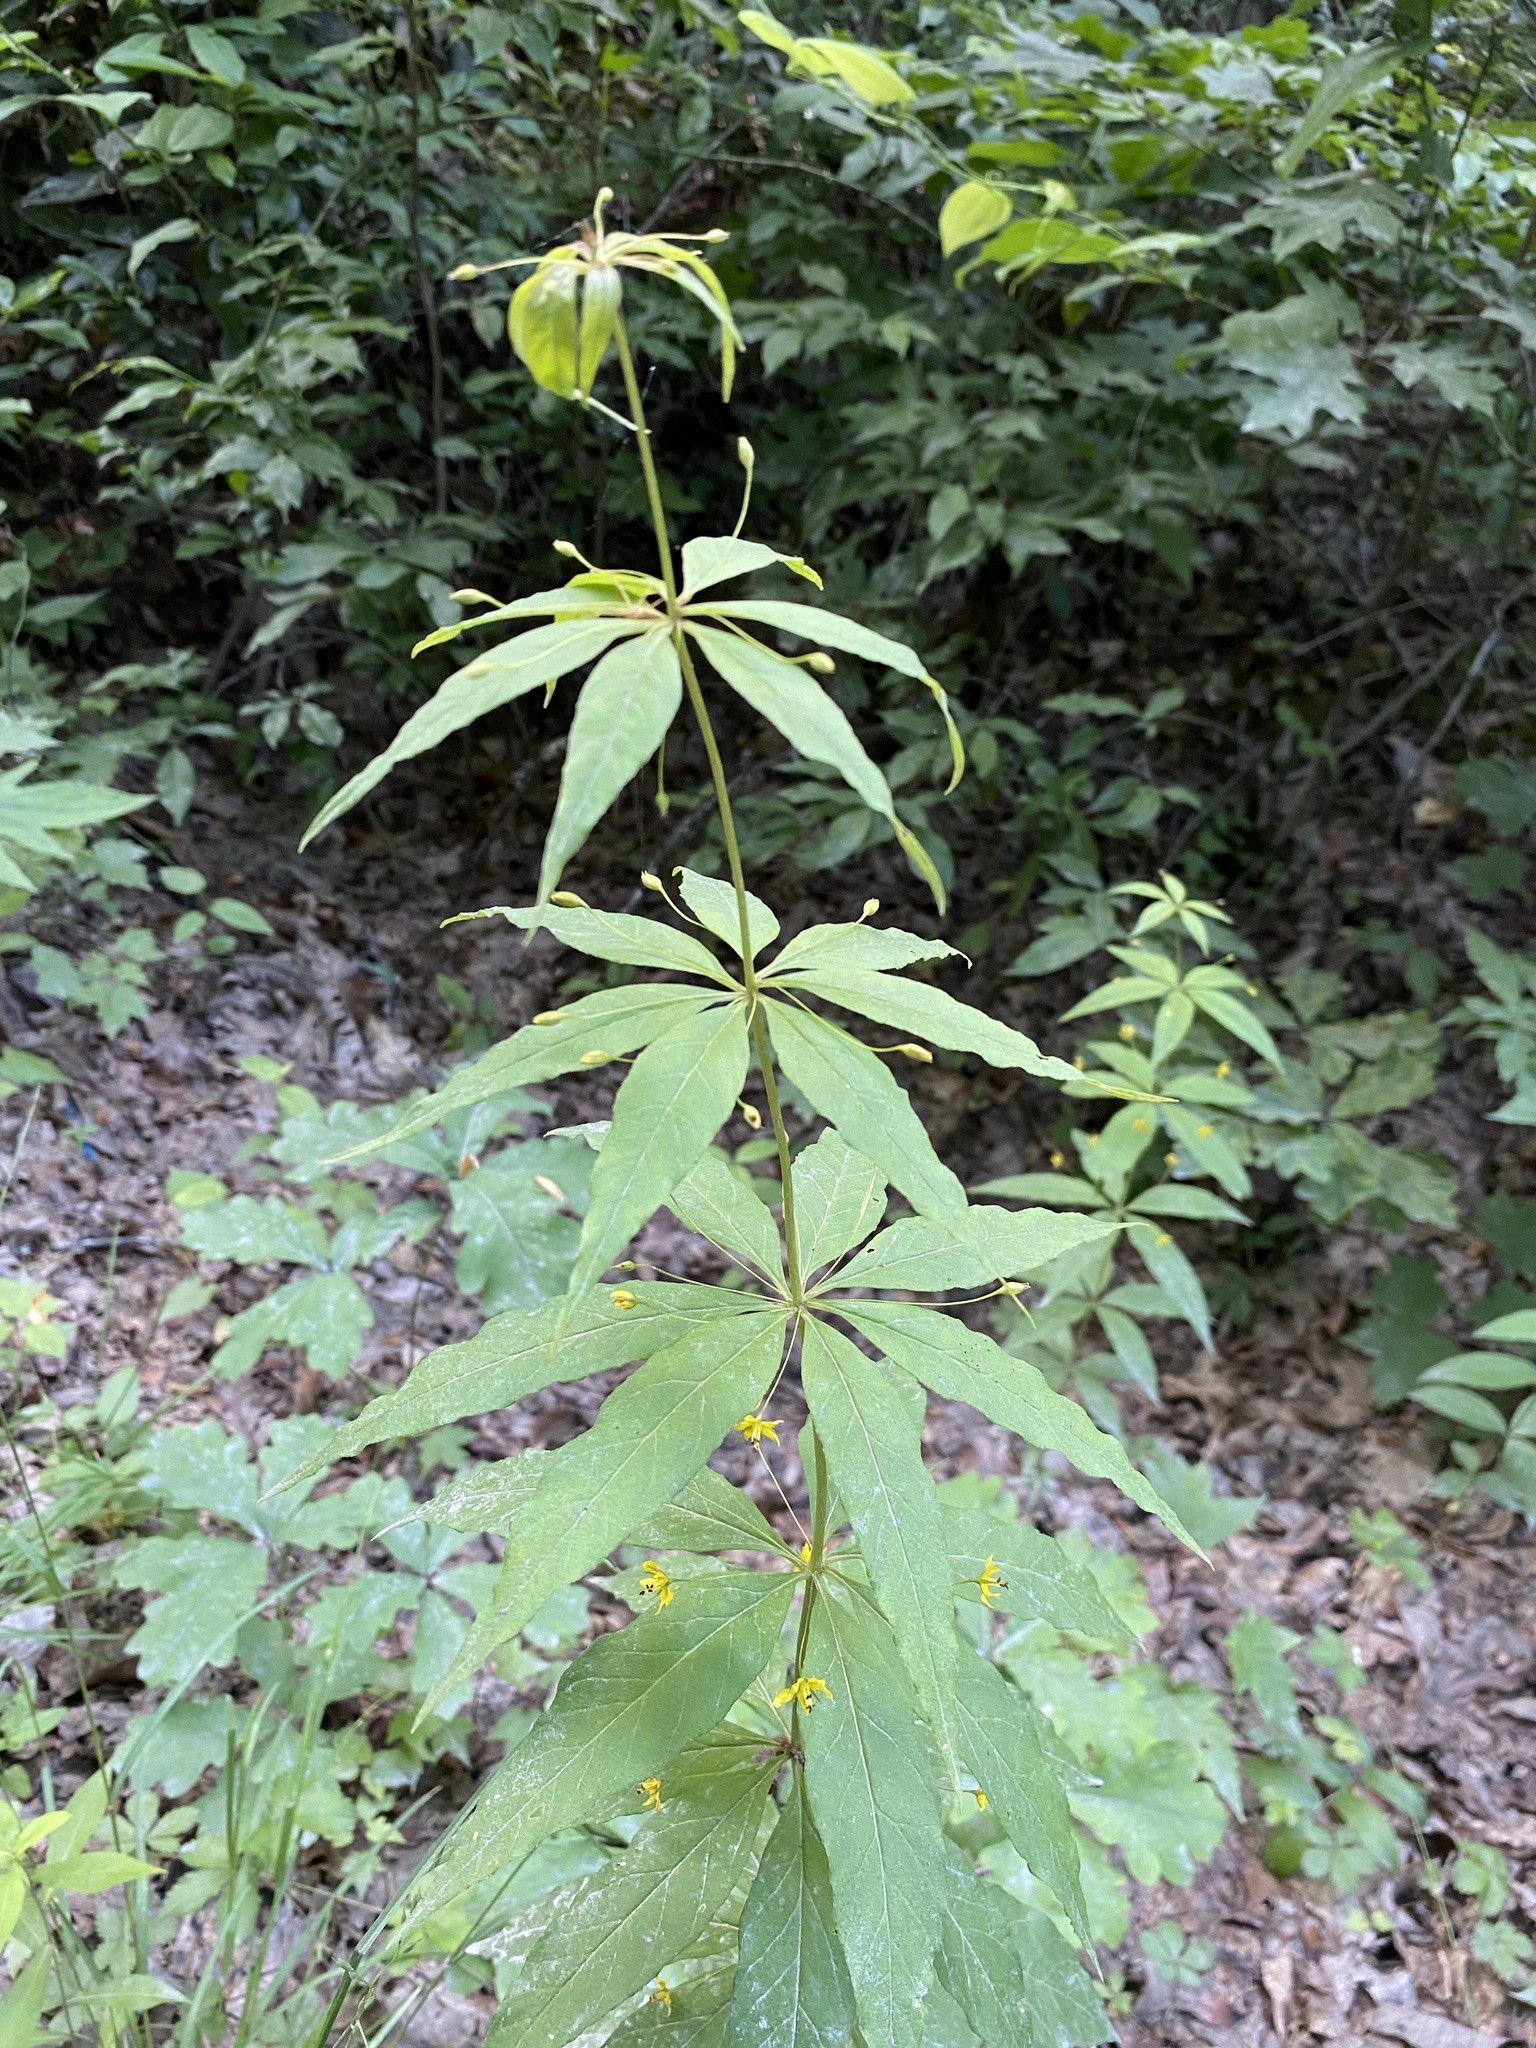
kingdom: Plantae
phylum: Tracheophyta
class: Magnoliopsida
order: Ericales
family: Primulaceae
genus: Lysimachia
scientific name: Lysimachia quadrifolia
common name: Whorled loosestrife
